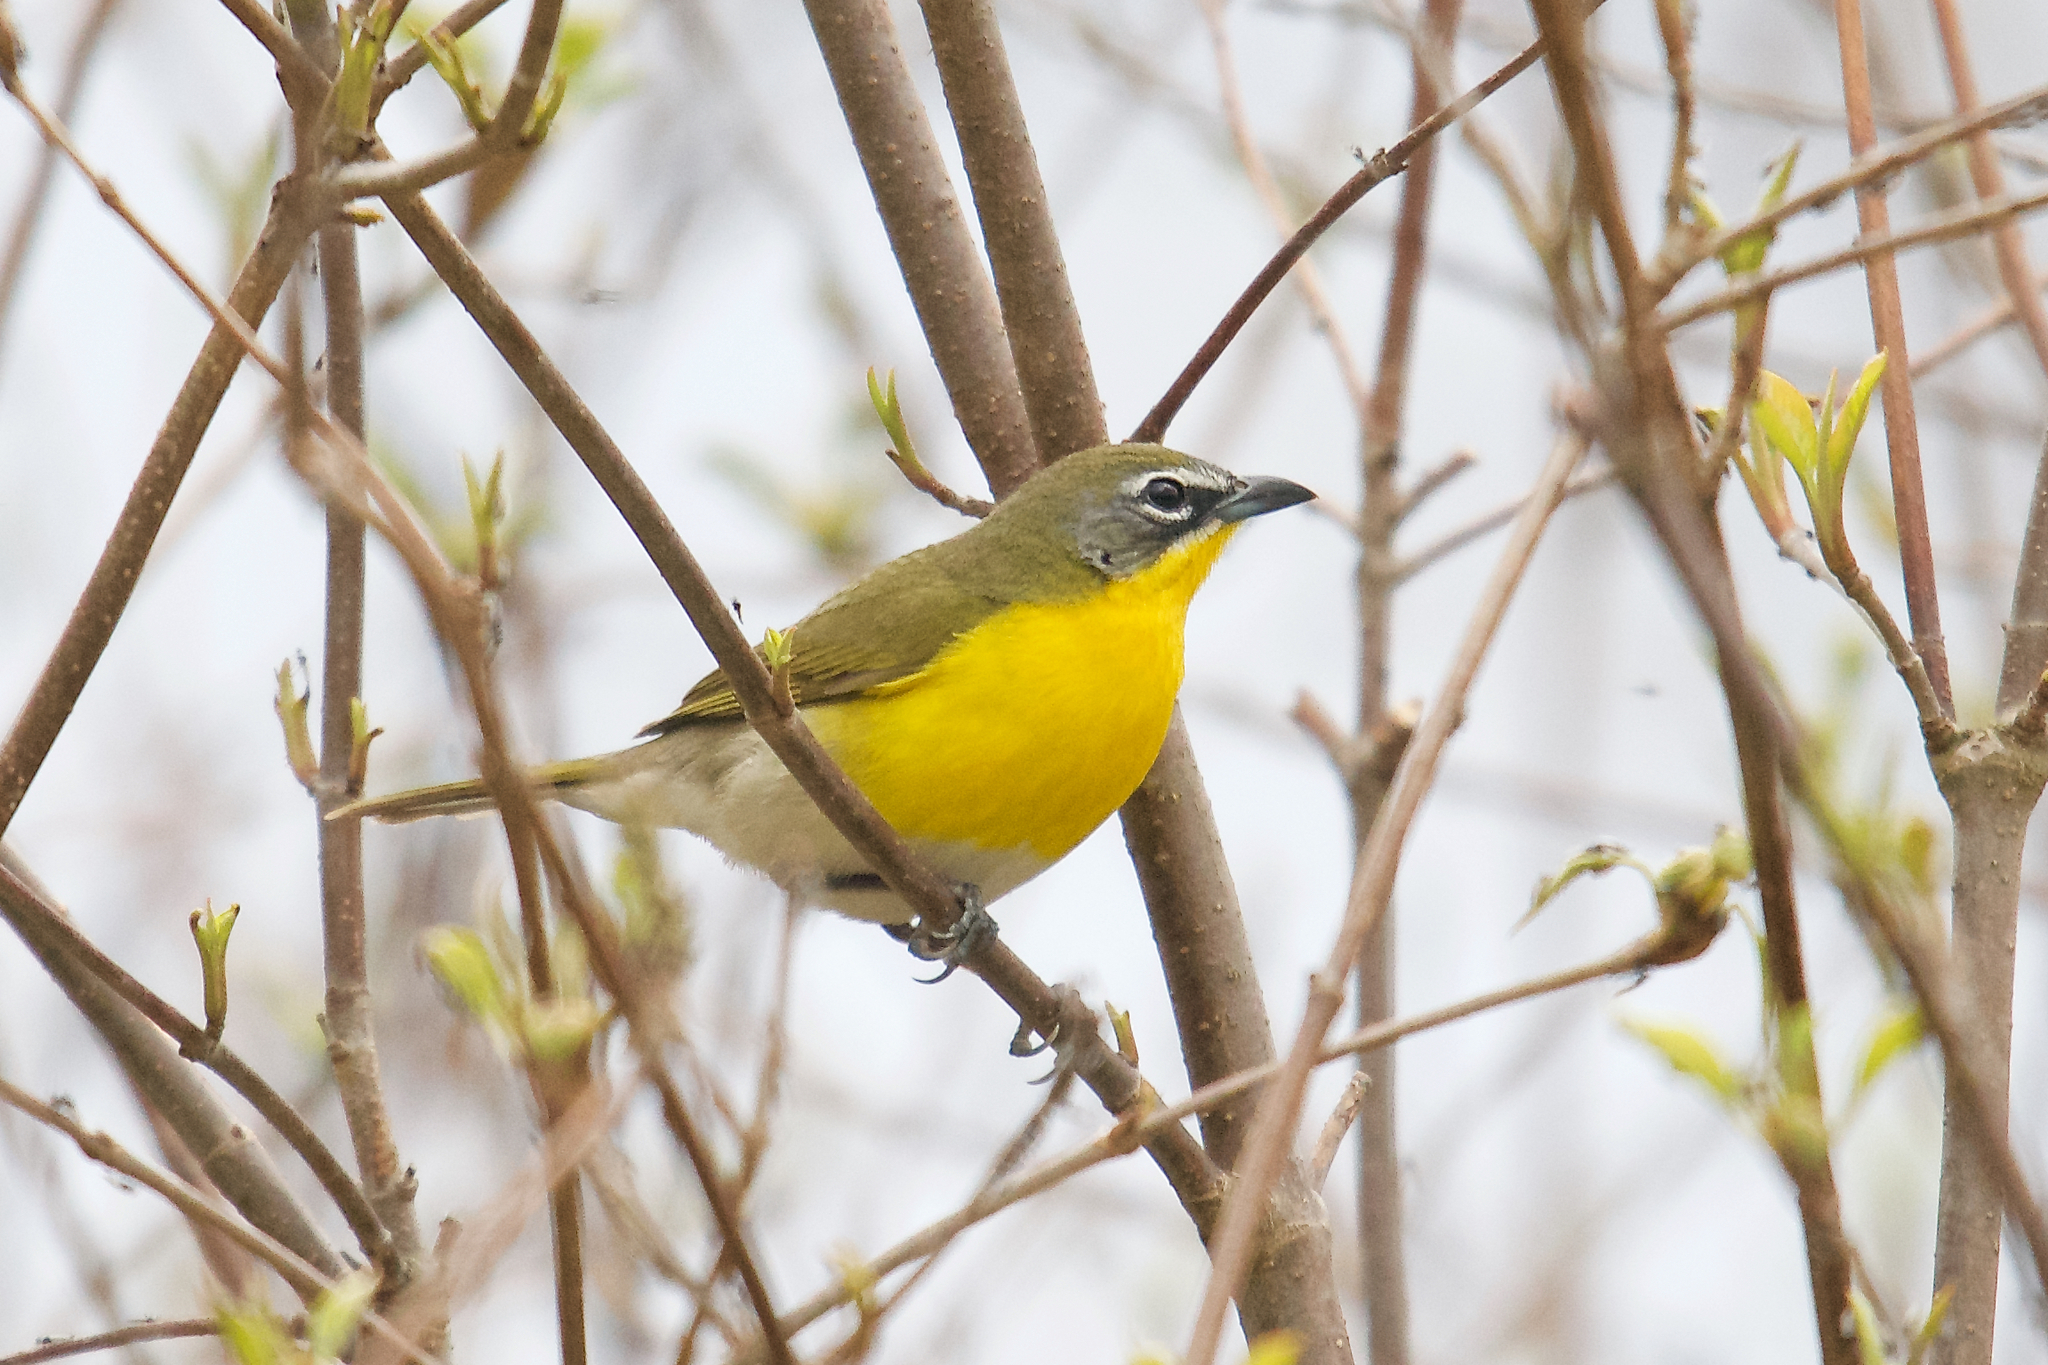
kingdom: Animalia
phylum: Chordata
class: Aves
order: Passeriformes
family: Parulidae
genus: Icteria
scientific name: Icteria virens
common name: Yellow-breasted chat
